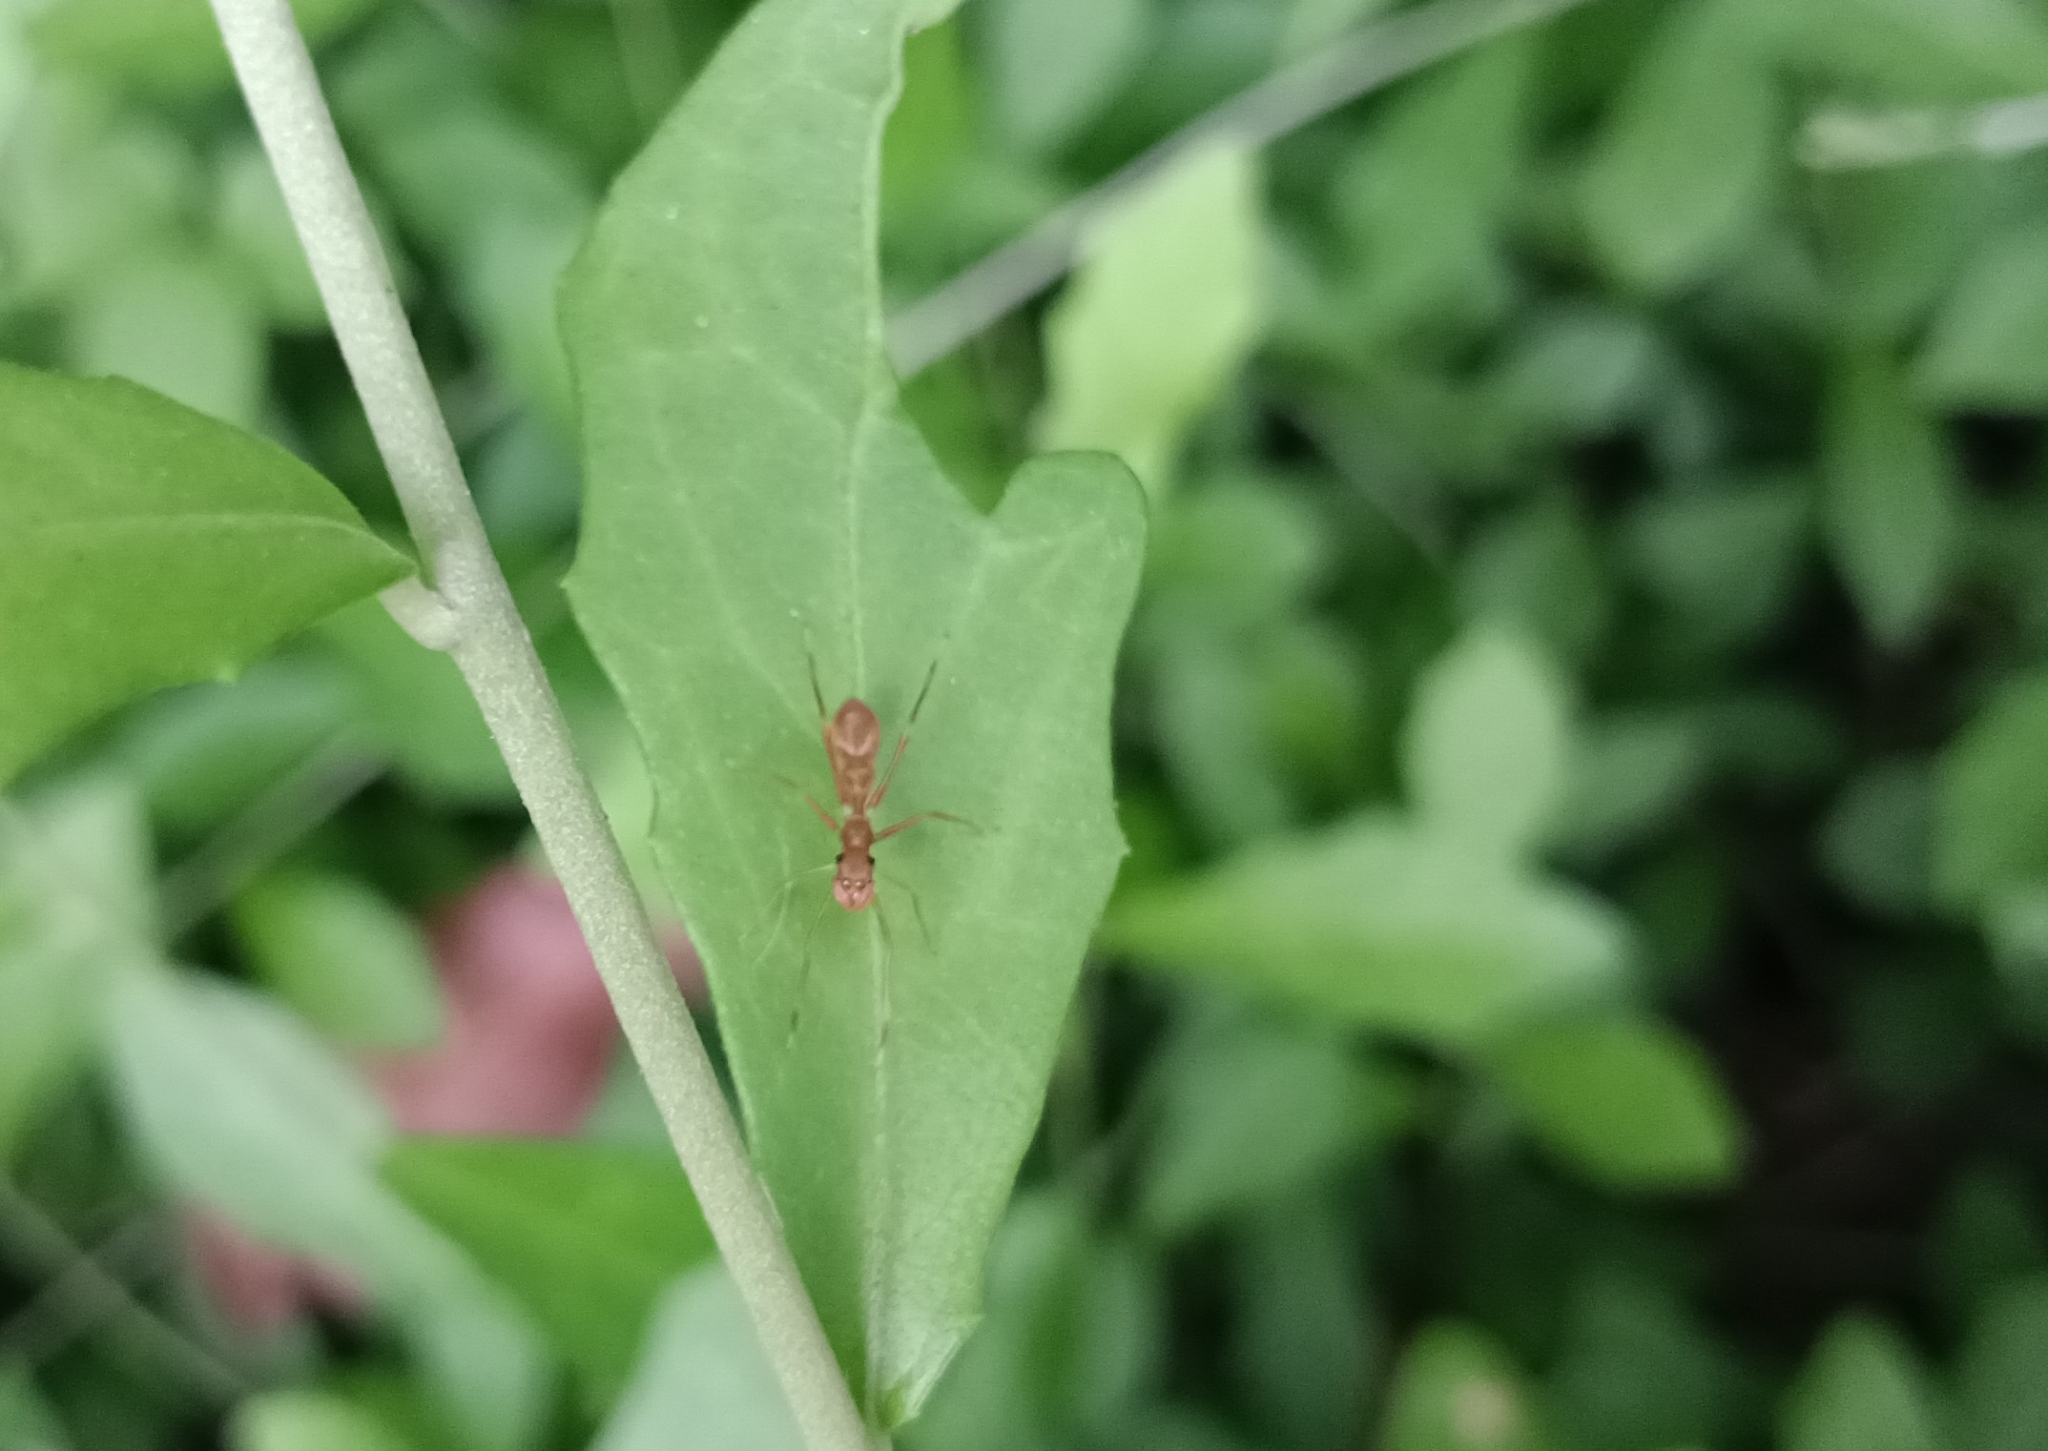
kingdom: Animalia
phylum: Arthropoda
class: Arachnida
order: Araneae
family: Salticidae
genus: Myrmaplata
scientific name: Myrmaplata plataleoides
